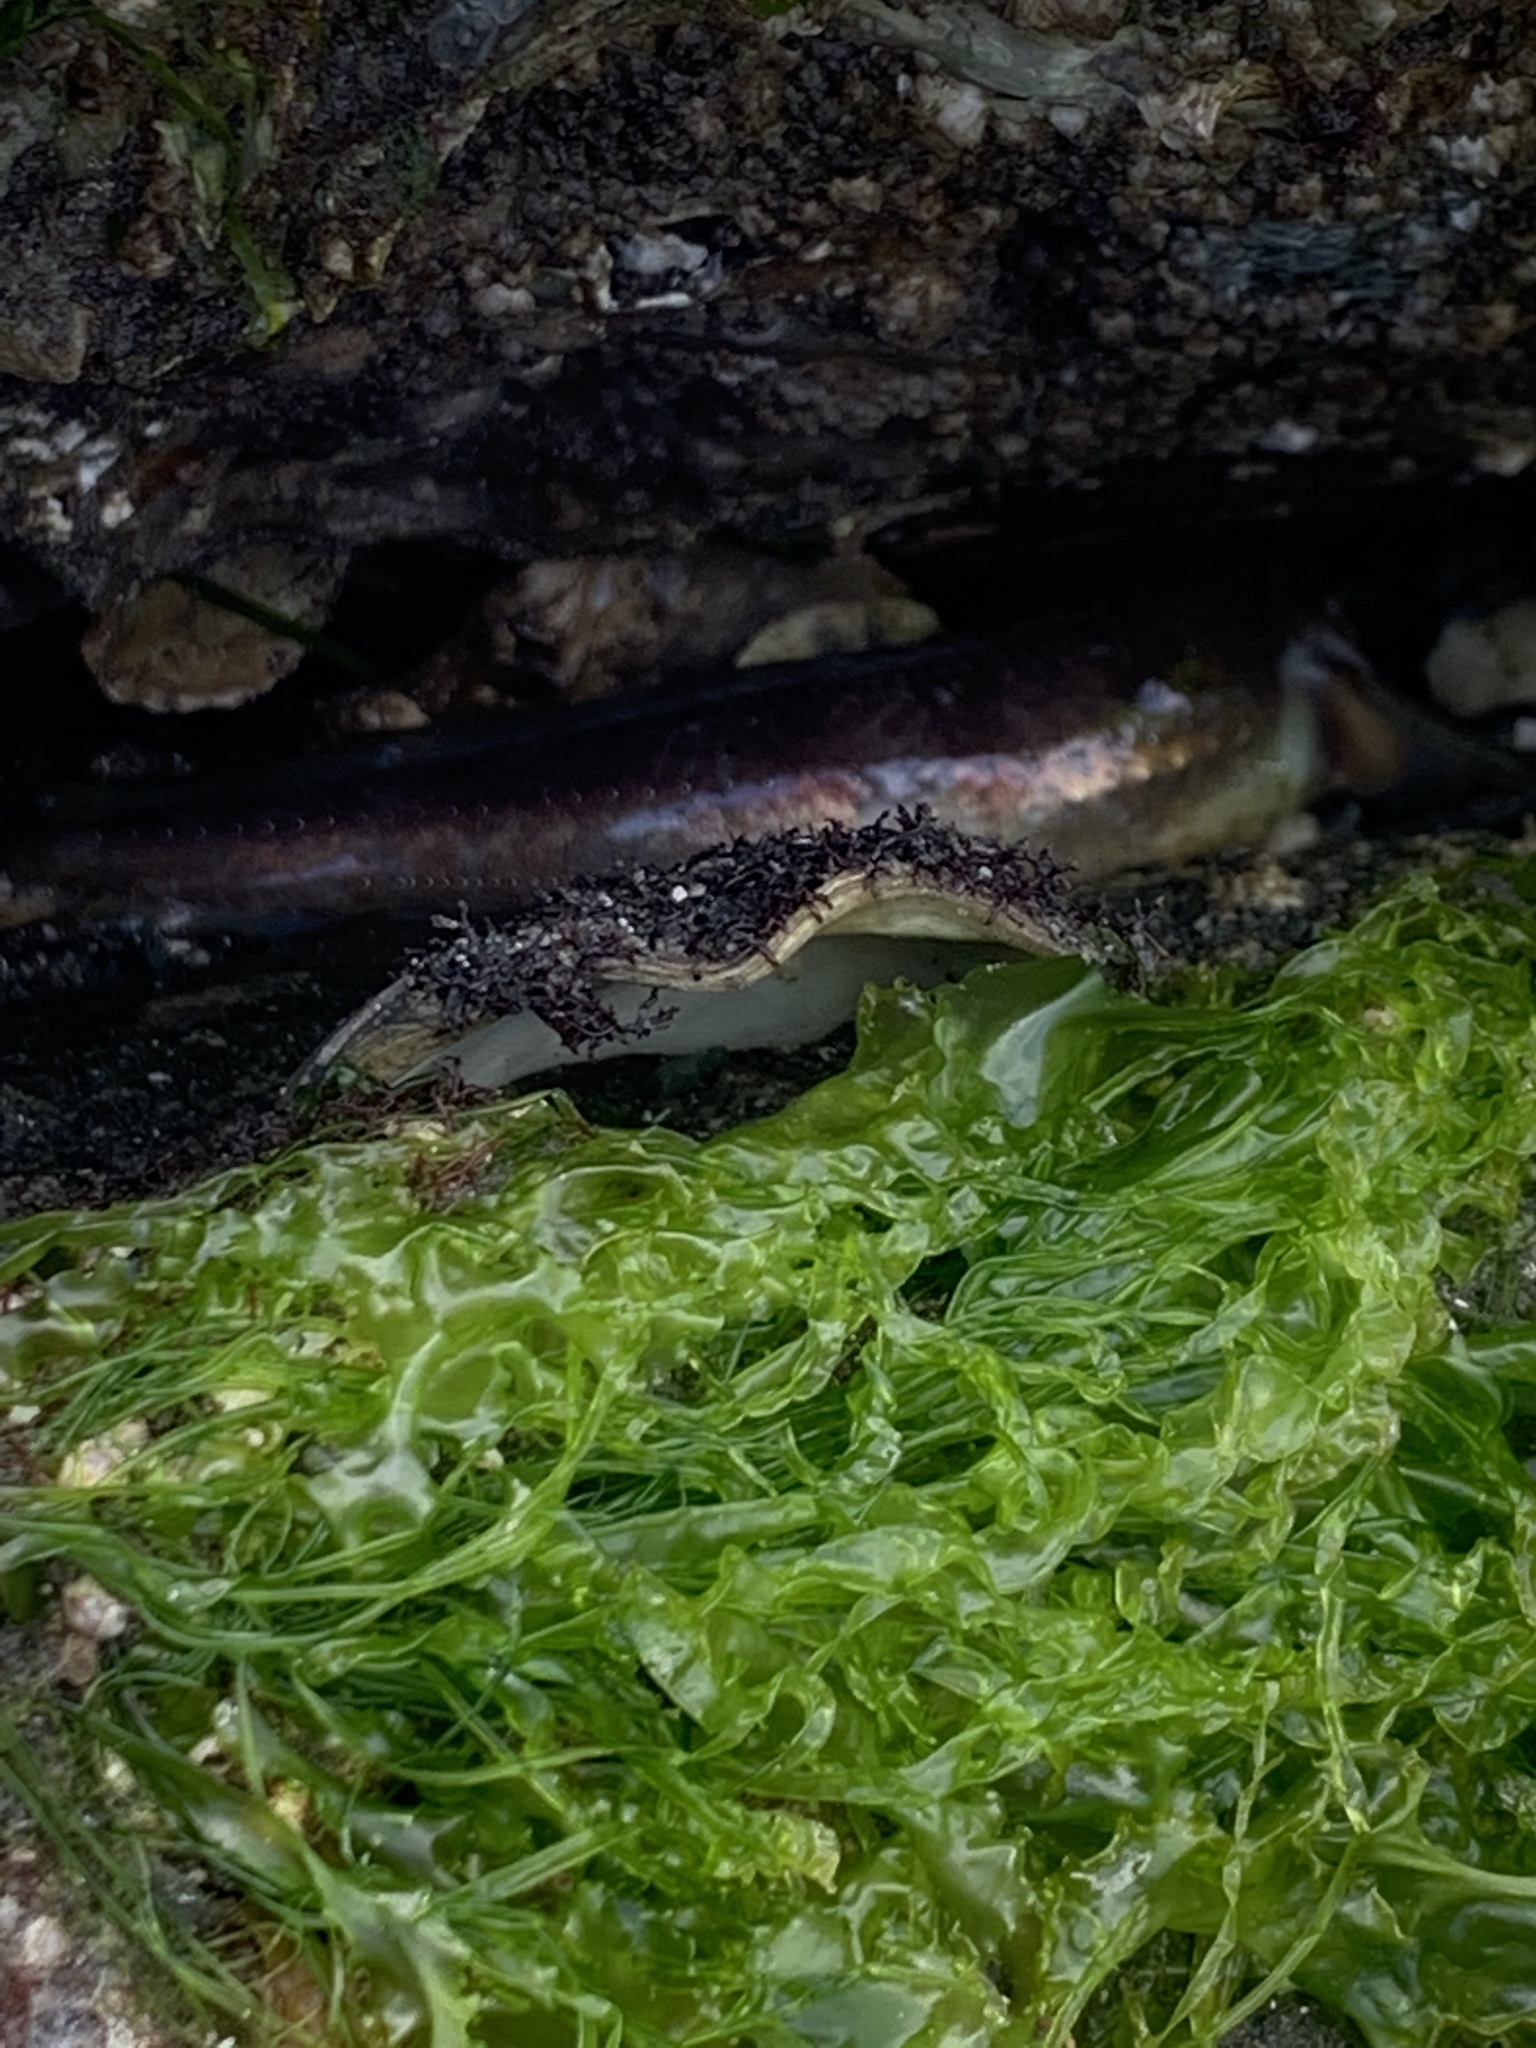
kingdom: Animalia
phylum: Chordata
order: Batrachoidiformes
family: Batrachoididae
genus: Porichthys
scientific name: Porichthys notatus
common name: Plainfin midshipman
